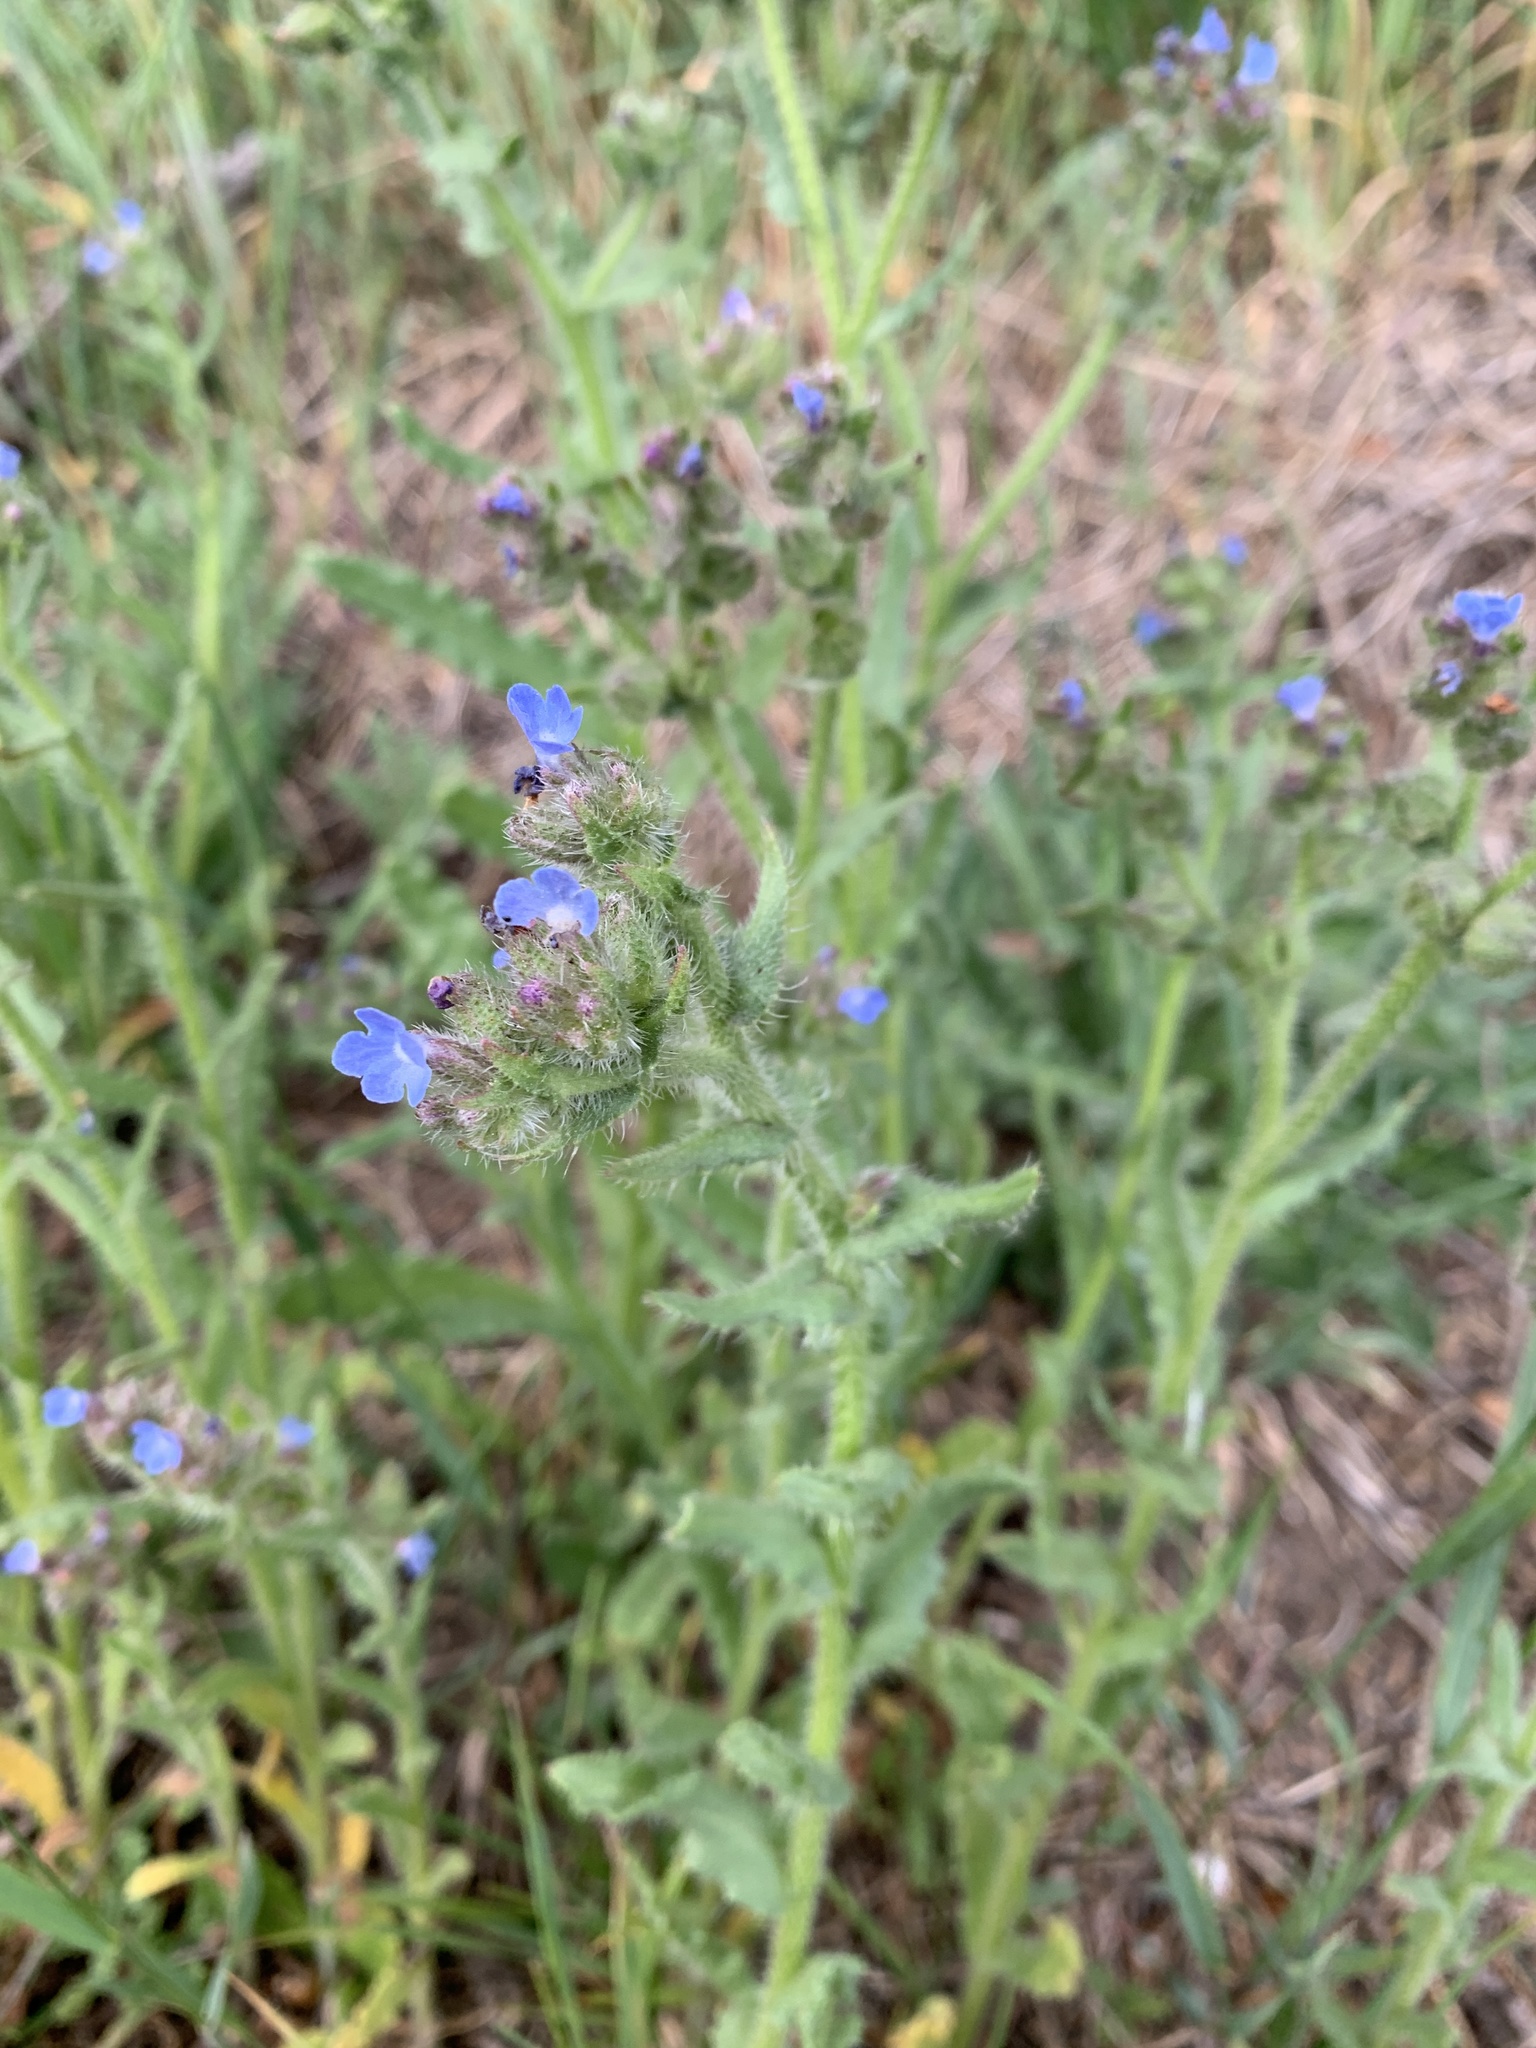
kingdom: Plantae
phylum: Tracheophyta
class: Magnoliopsida
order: Boraginales
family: Boraginaceae
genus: Lycopsis
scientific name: Lycopsis arvensis
